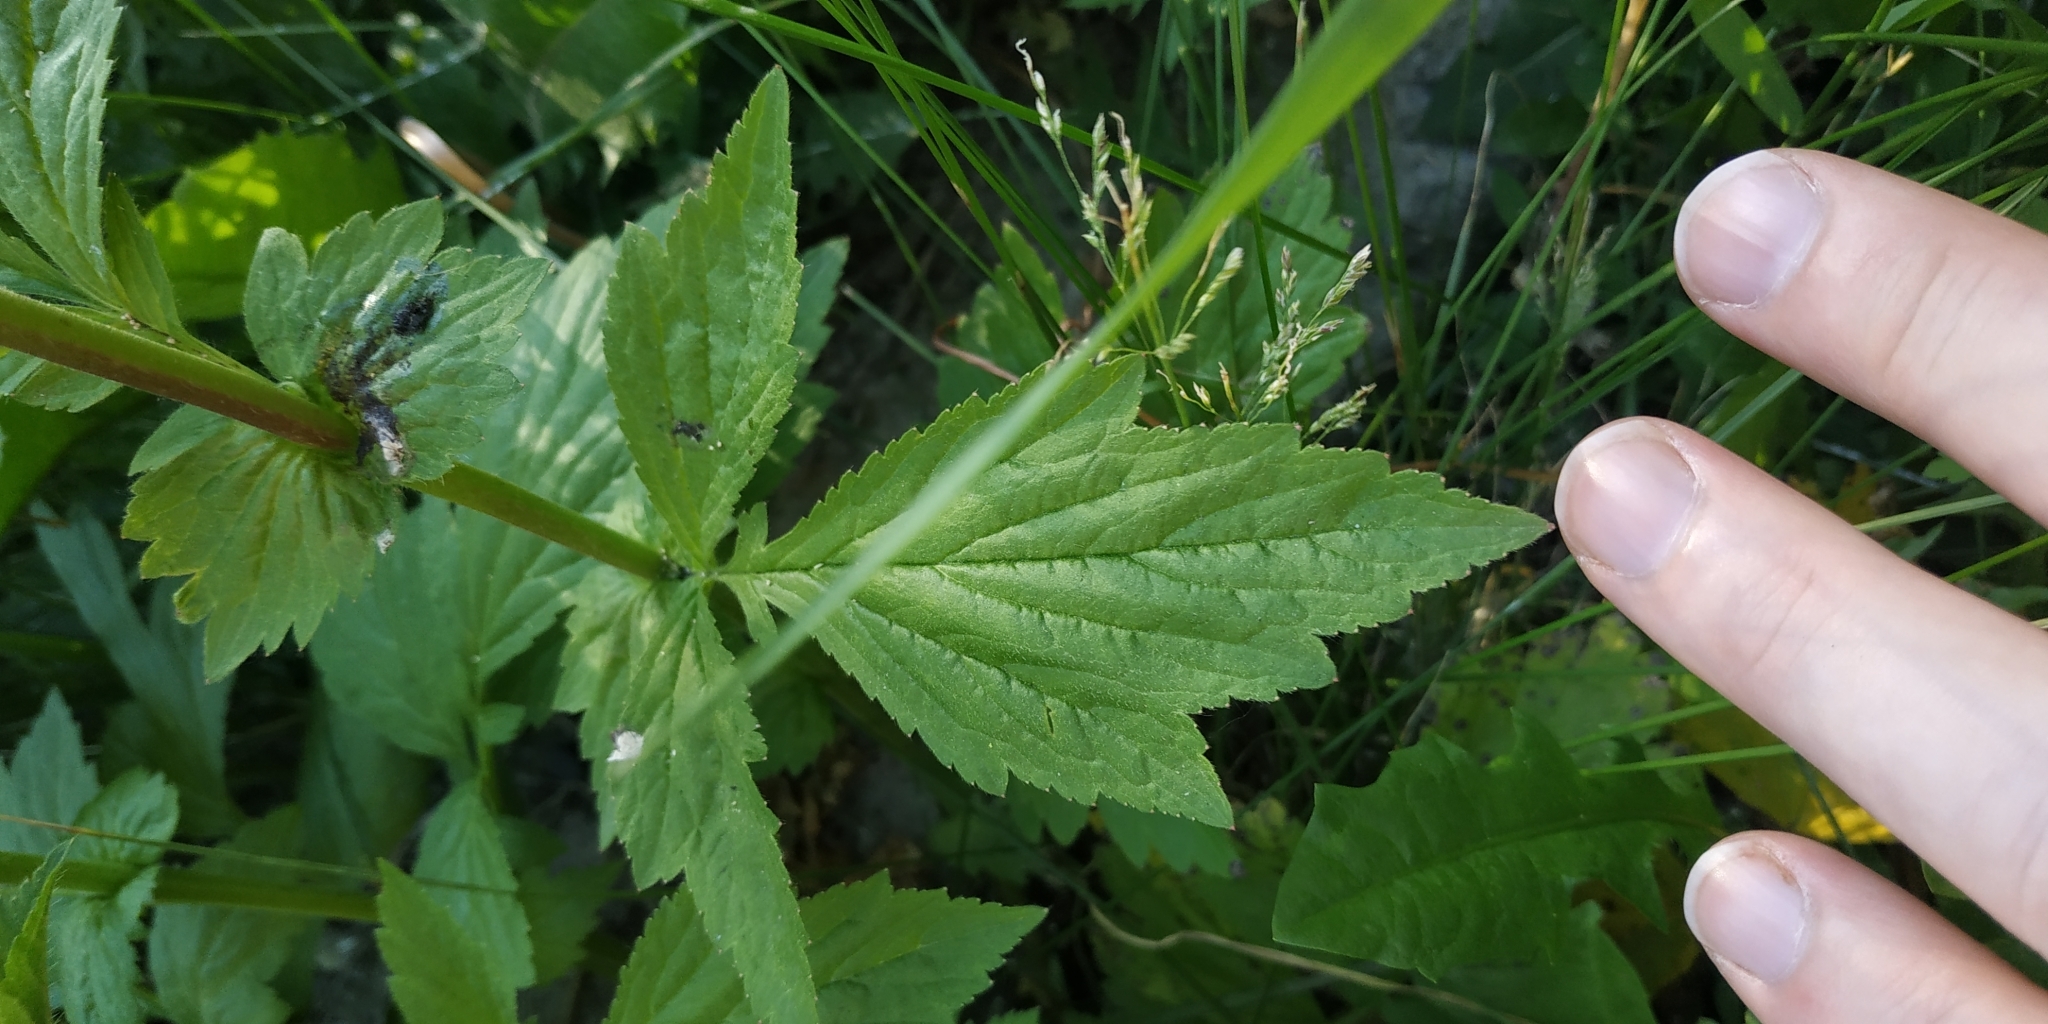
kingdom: Plantae
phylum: Tracheophyta
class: Magnoliopsida
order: Rosales
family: Rosaceae
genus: Geum
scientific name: Geum aleppicum
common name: Yellow avens
